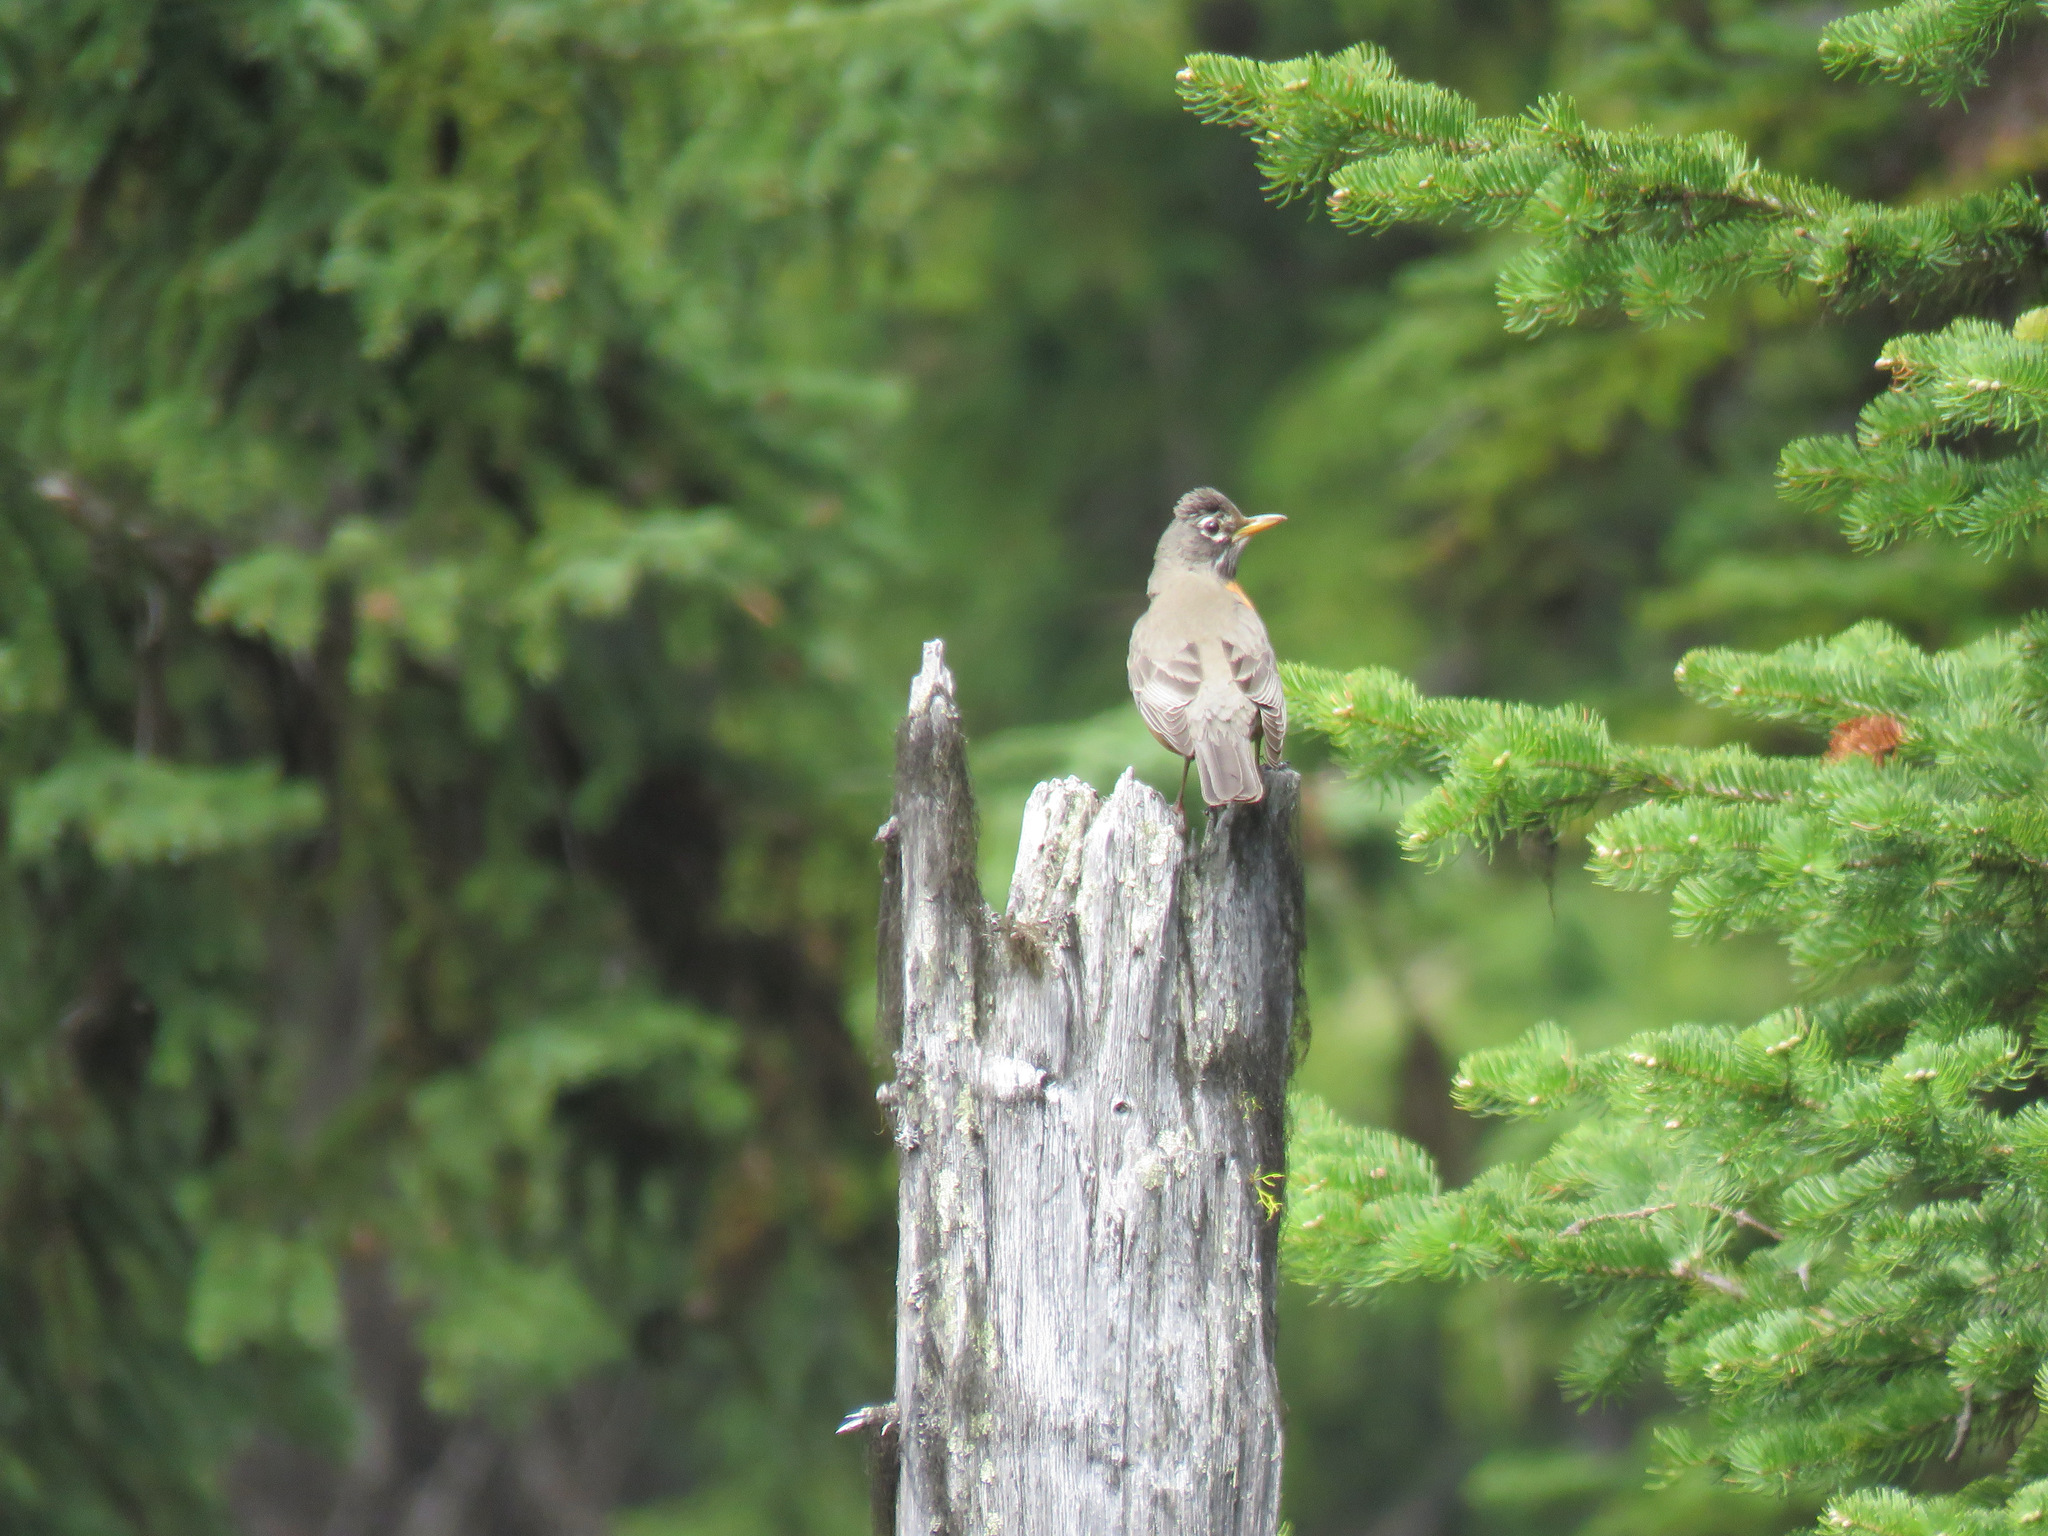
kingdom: Animalia
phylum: Chordata
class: Aves
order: Passeriformes
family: Turdidae
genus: Turdus
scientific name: Turdus migratorius
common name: American robin
